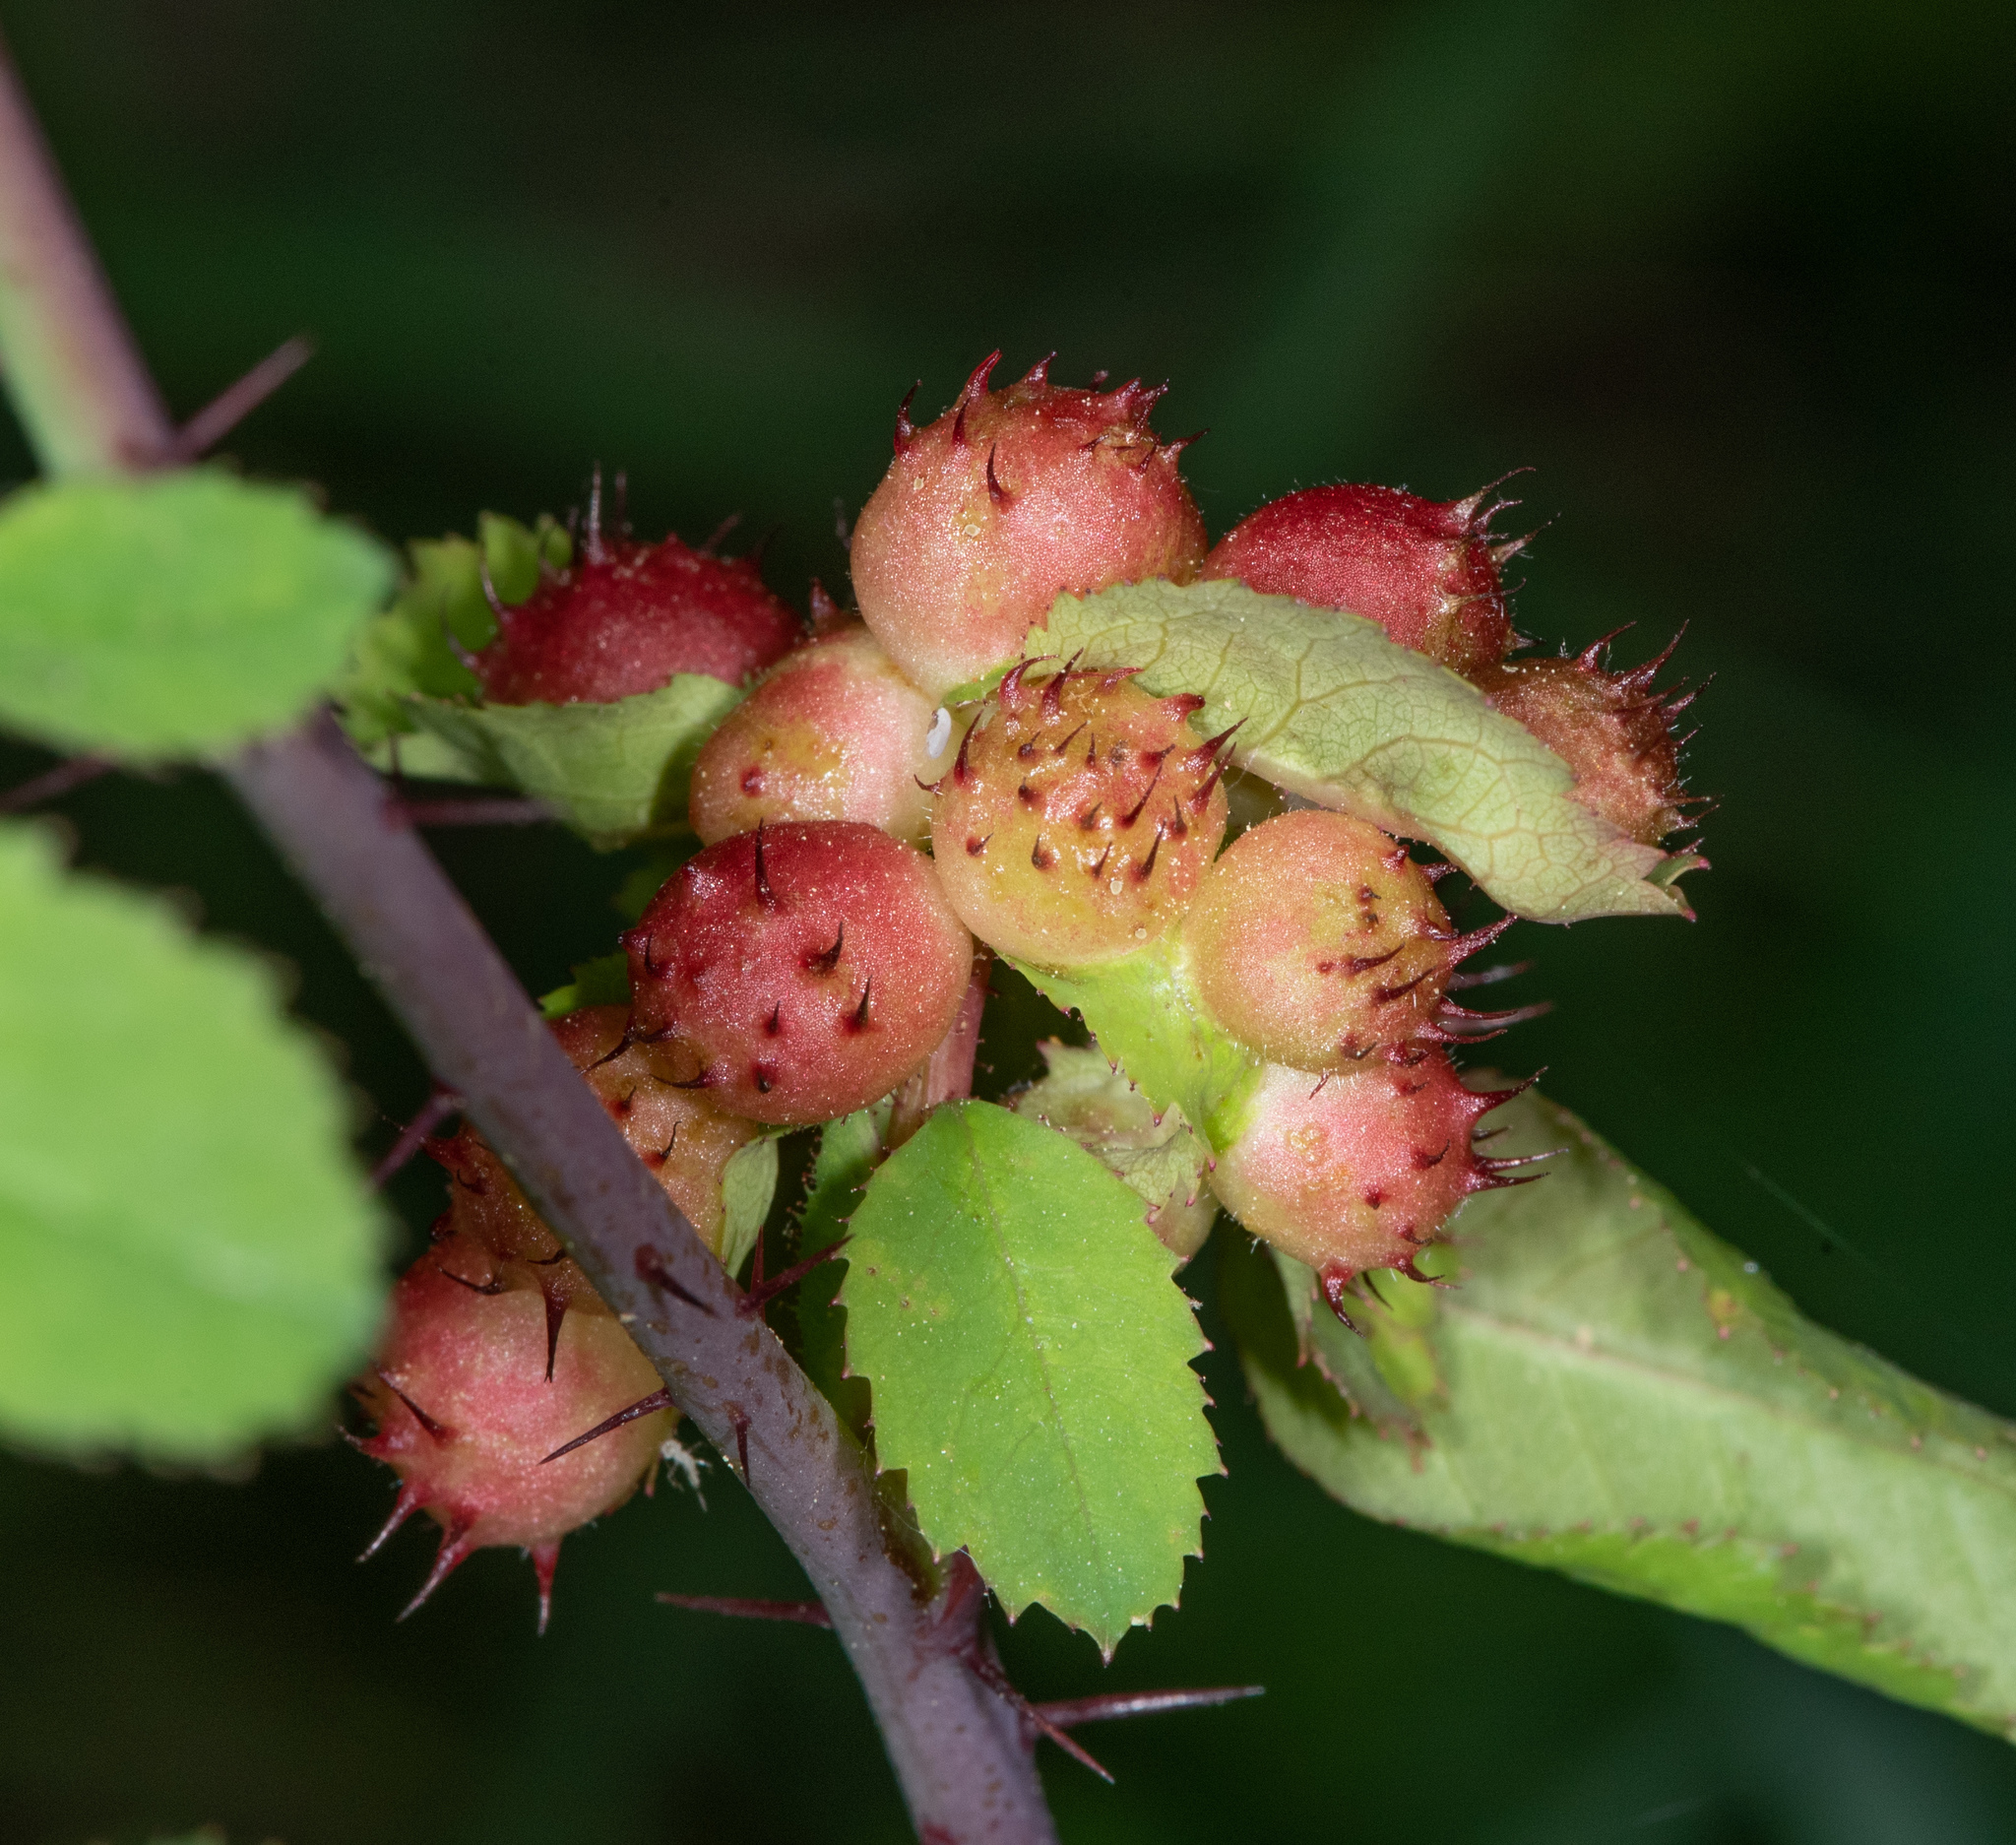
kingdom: Animalia
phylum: Arthropoda
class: Insecta
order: Hymenoptera
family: Cynipidae
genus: Diplolepis
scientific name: Diplolepis polita
